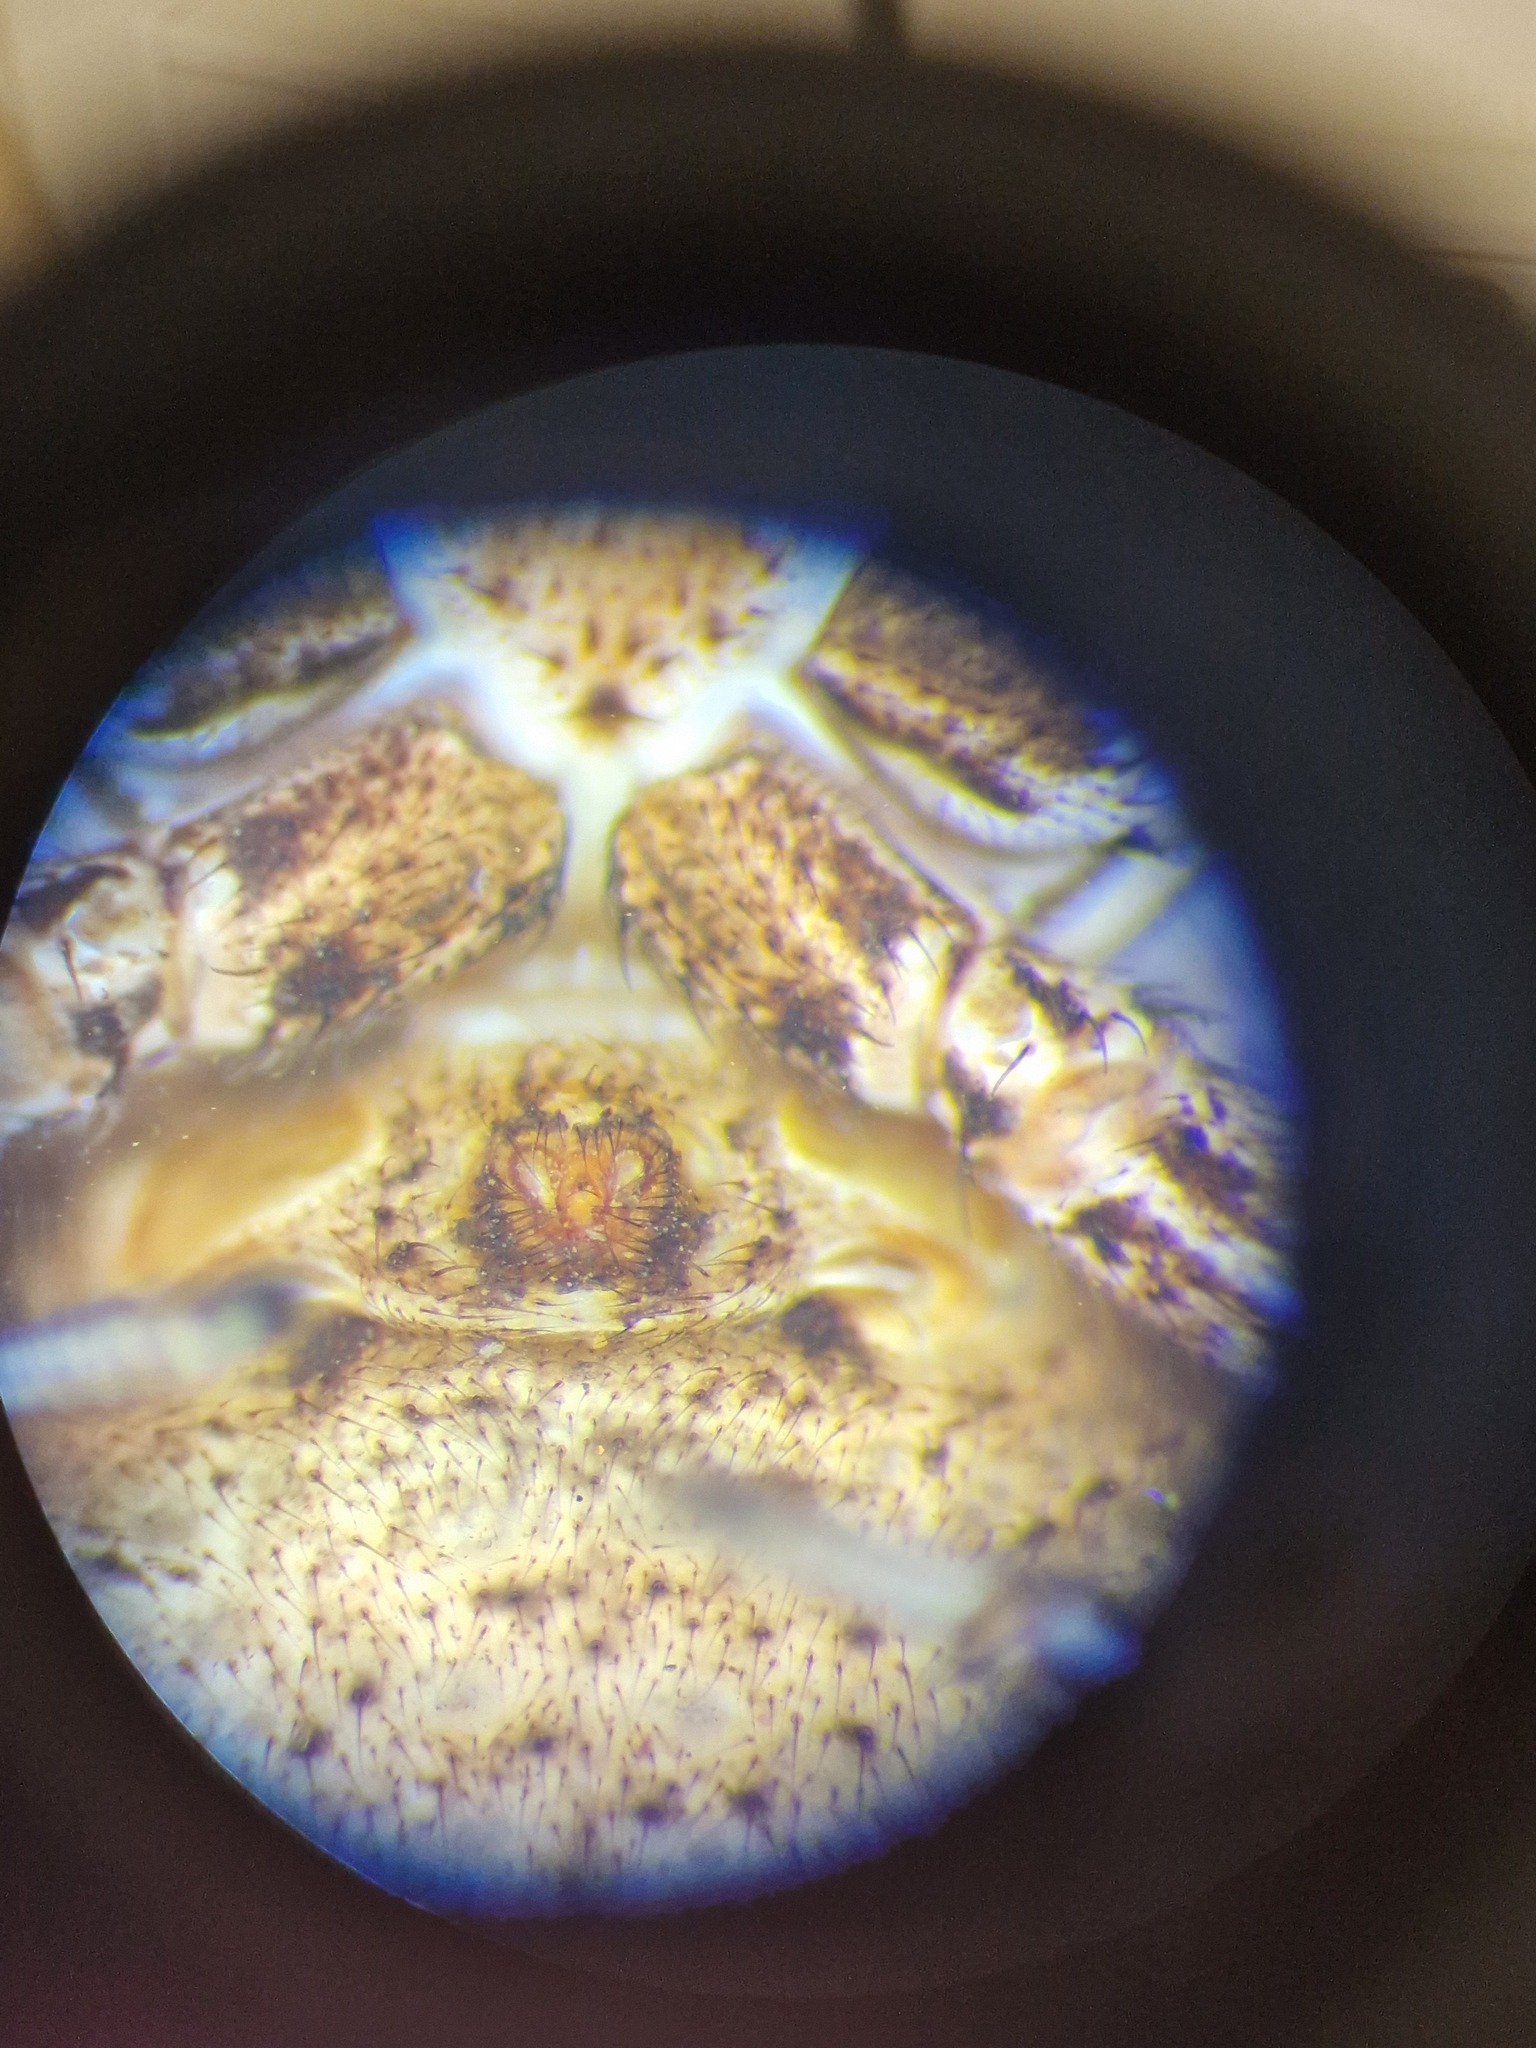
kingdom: Animalia
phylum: Arthropoda
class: Arachnida
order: Araneae
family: Thomisidae
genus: Bassaniodes
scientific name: Bassaniodes bufo
